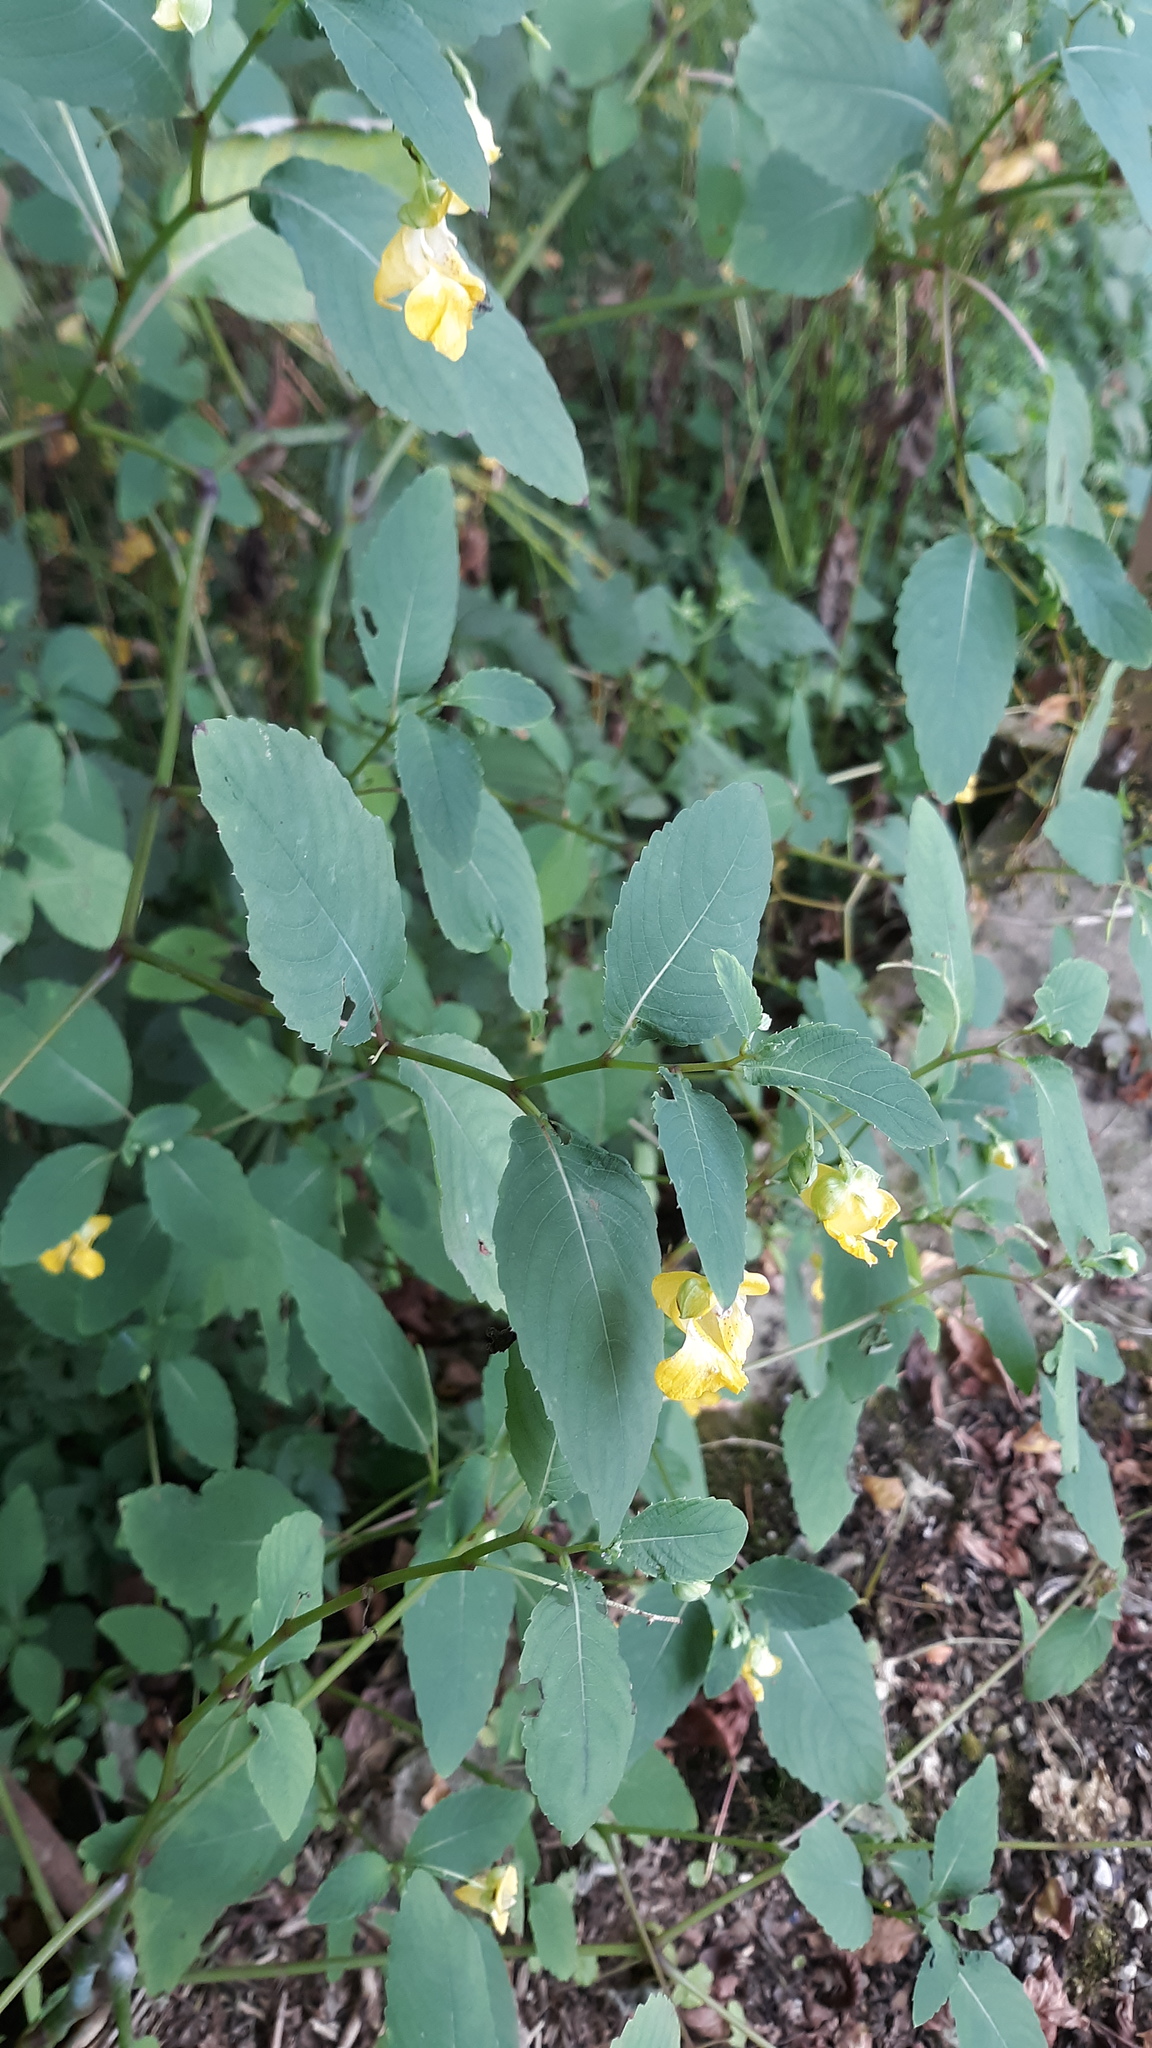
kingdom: Plantae
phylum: Tracheophyta
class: Magnoliopsida
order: Ericales
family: Balsaminaceae
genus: Impatiens
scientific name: Impatiens pallida
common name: Pale snapweed
